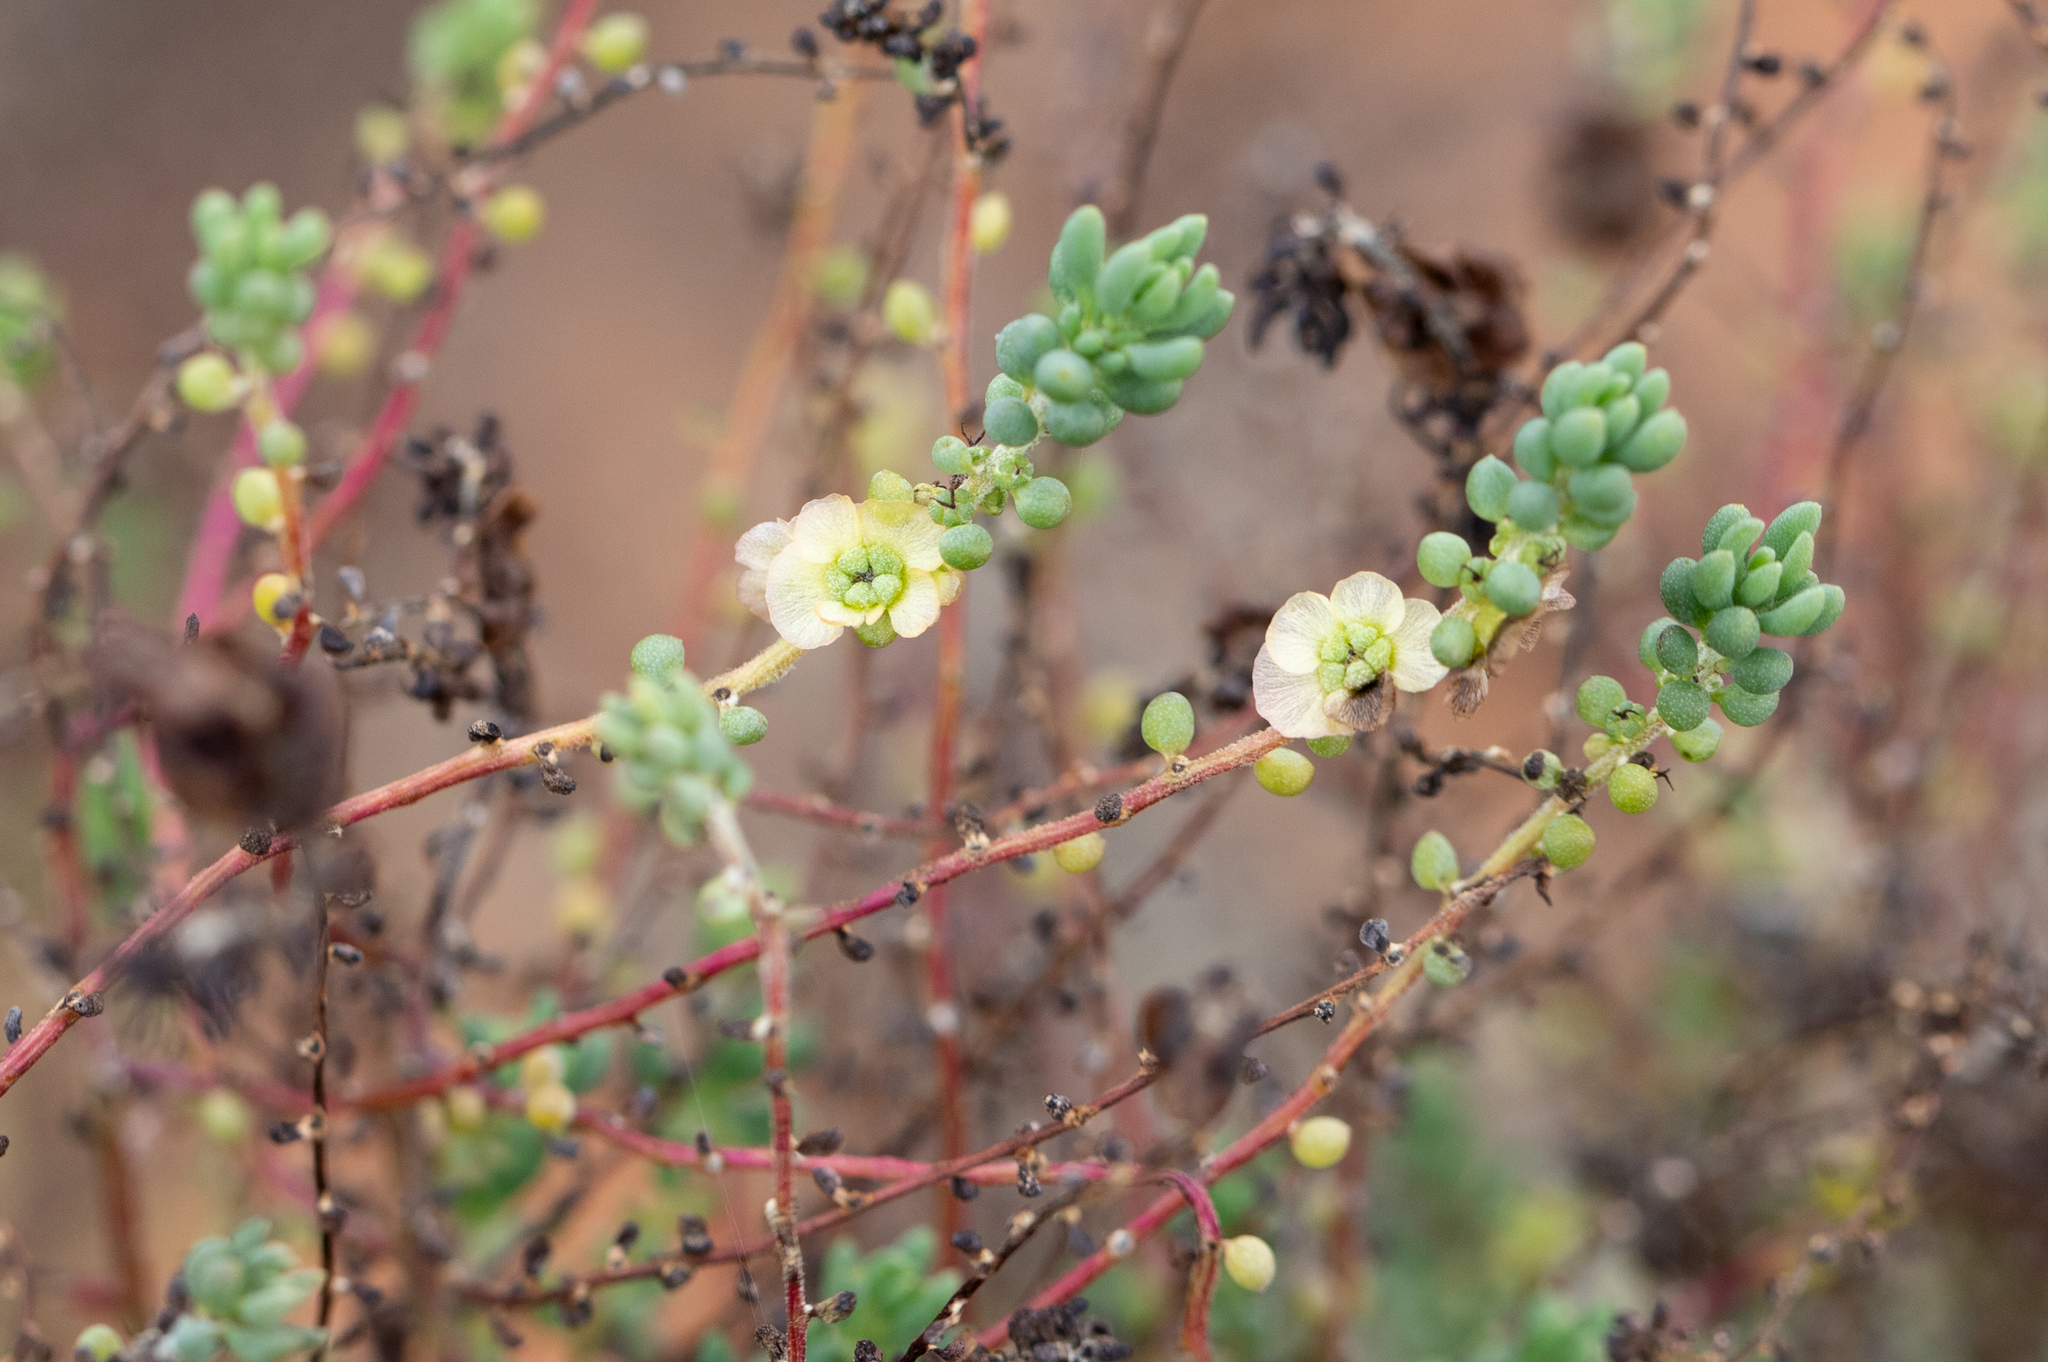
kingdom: Plantae
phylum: Tracheophyta
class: Magnoliopsida
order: Caryophyllales
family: Amaranthaceae
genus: Maireana
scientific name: Maireana brevifolia
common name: Eastern cottonbush
